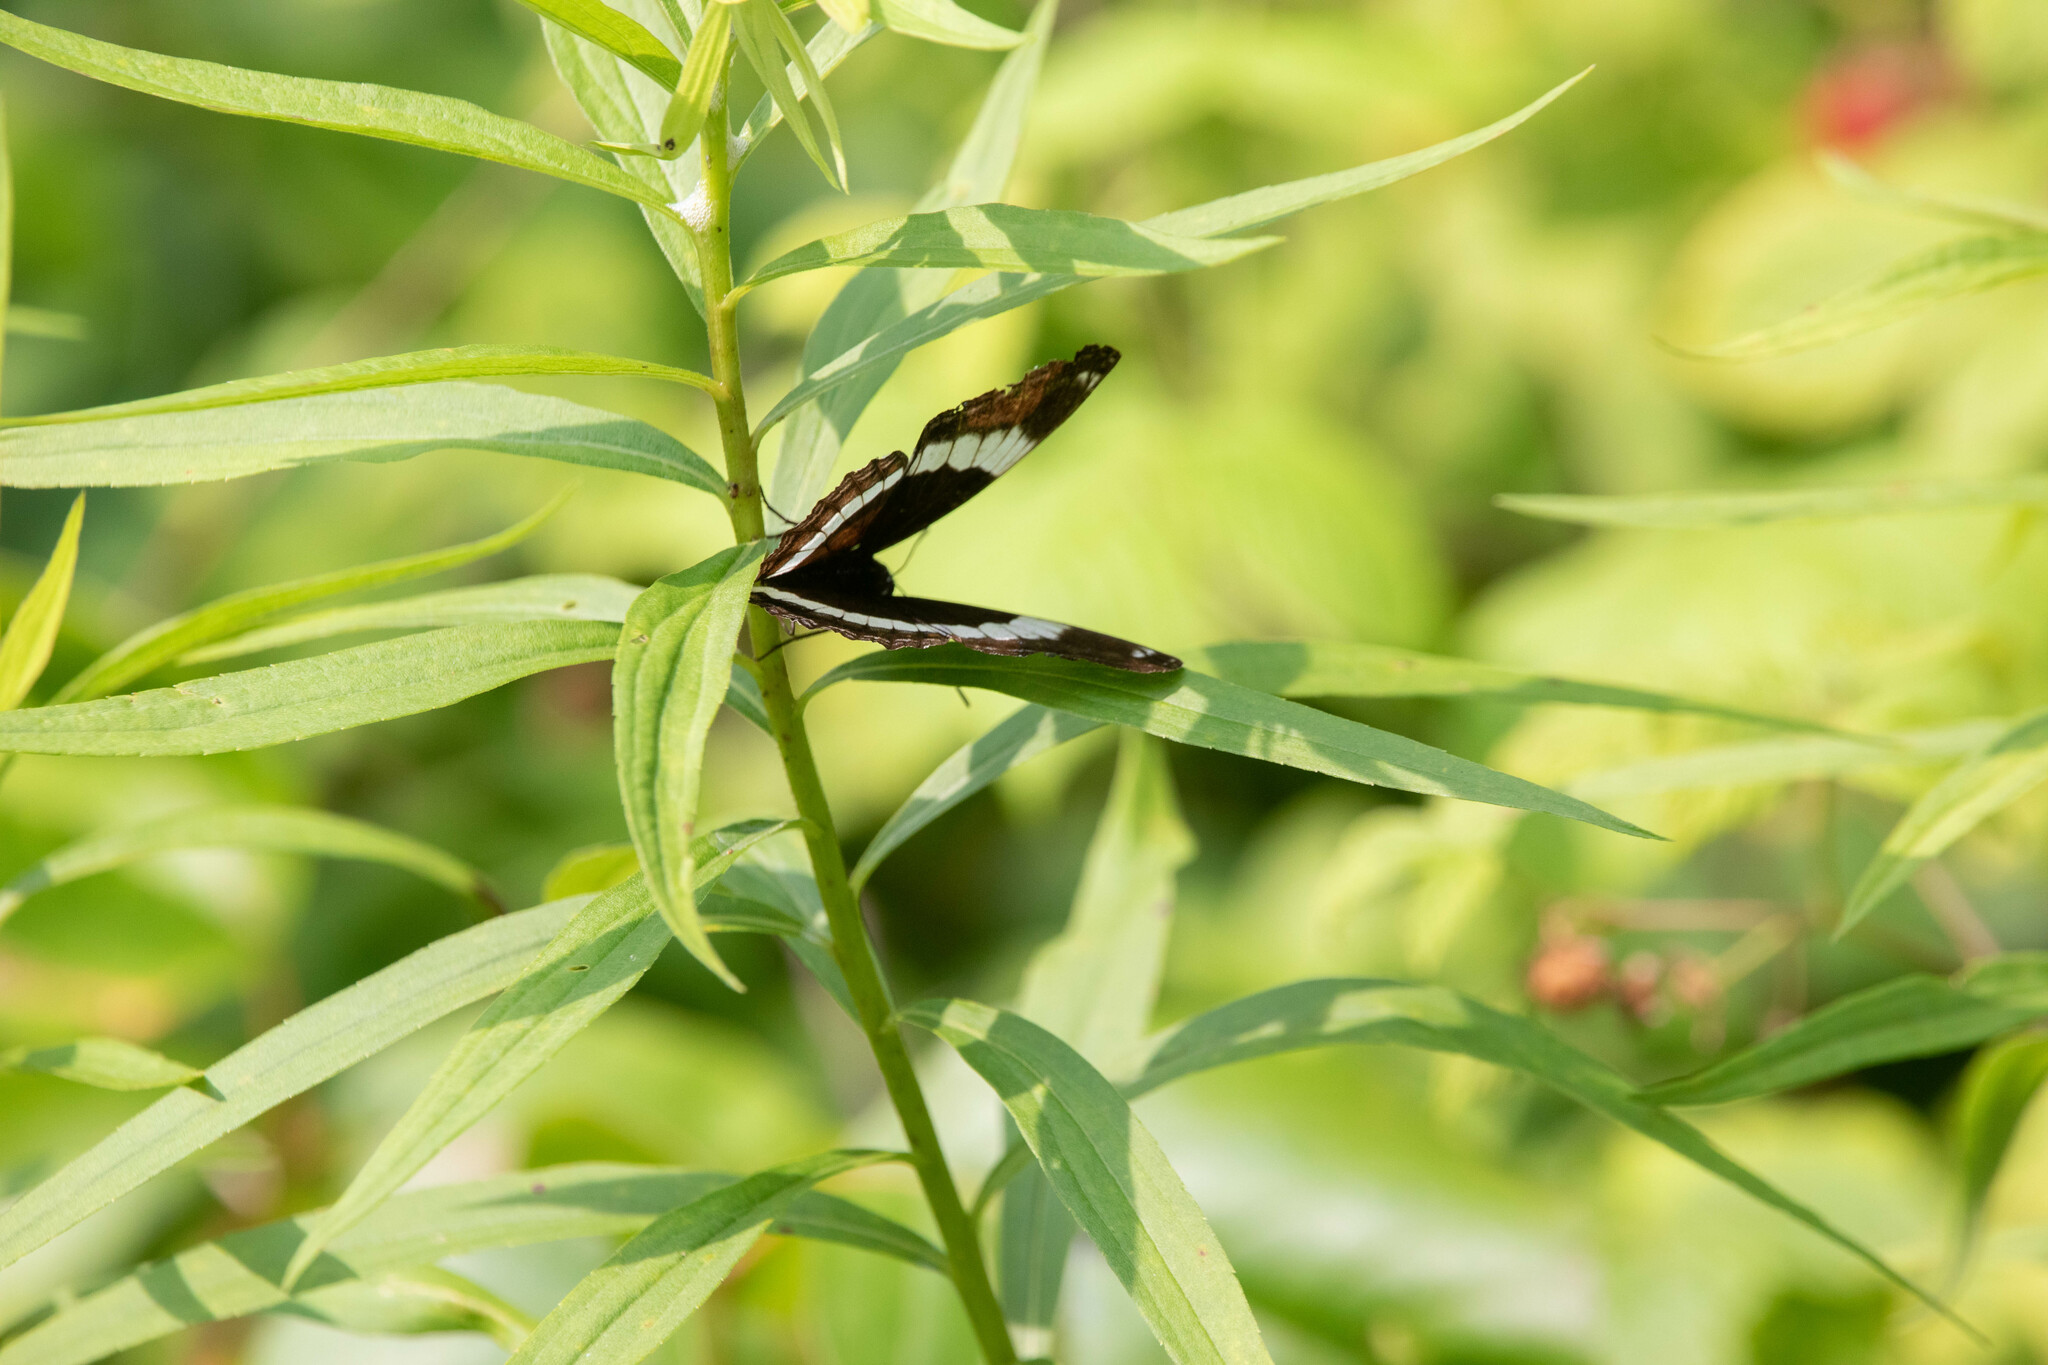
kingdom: Animalia
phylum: Arthropoda
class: Insecta
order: Lepidoptera
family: Nymphalidae
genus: Limenitis
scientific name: Limenitis arthemis
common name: Red-spotted admiral
